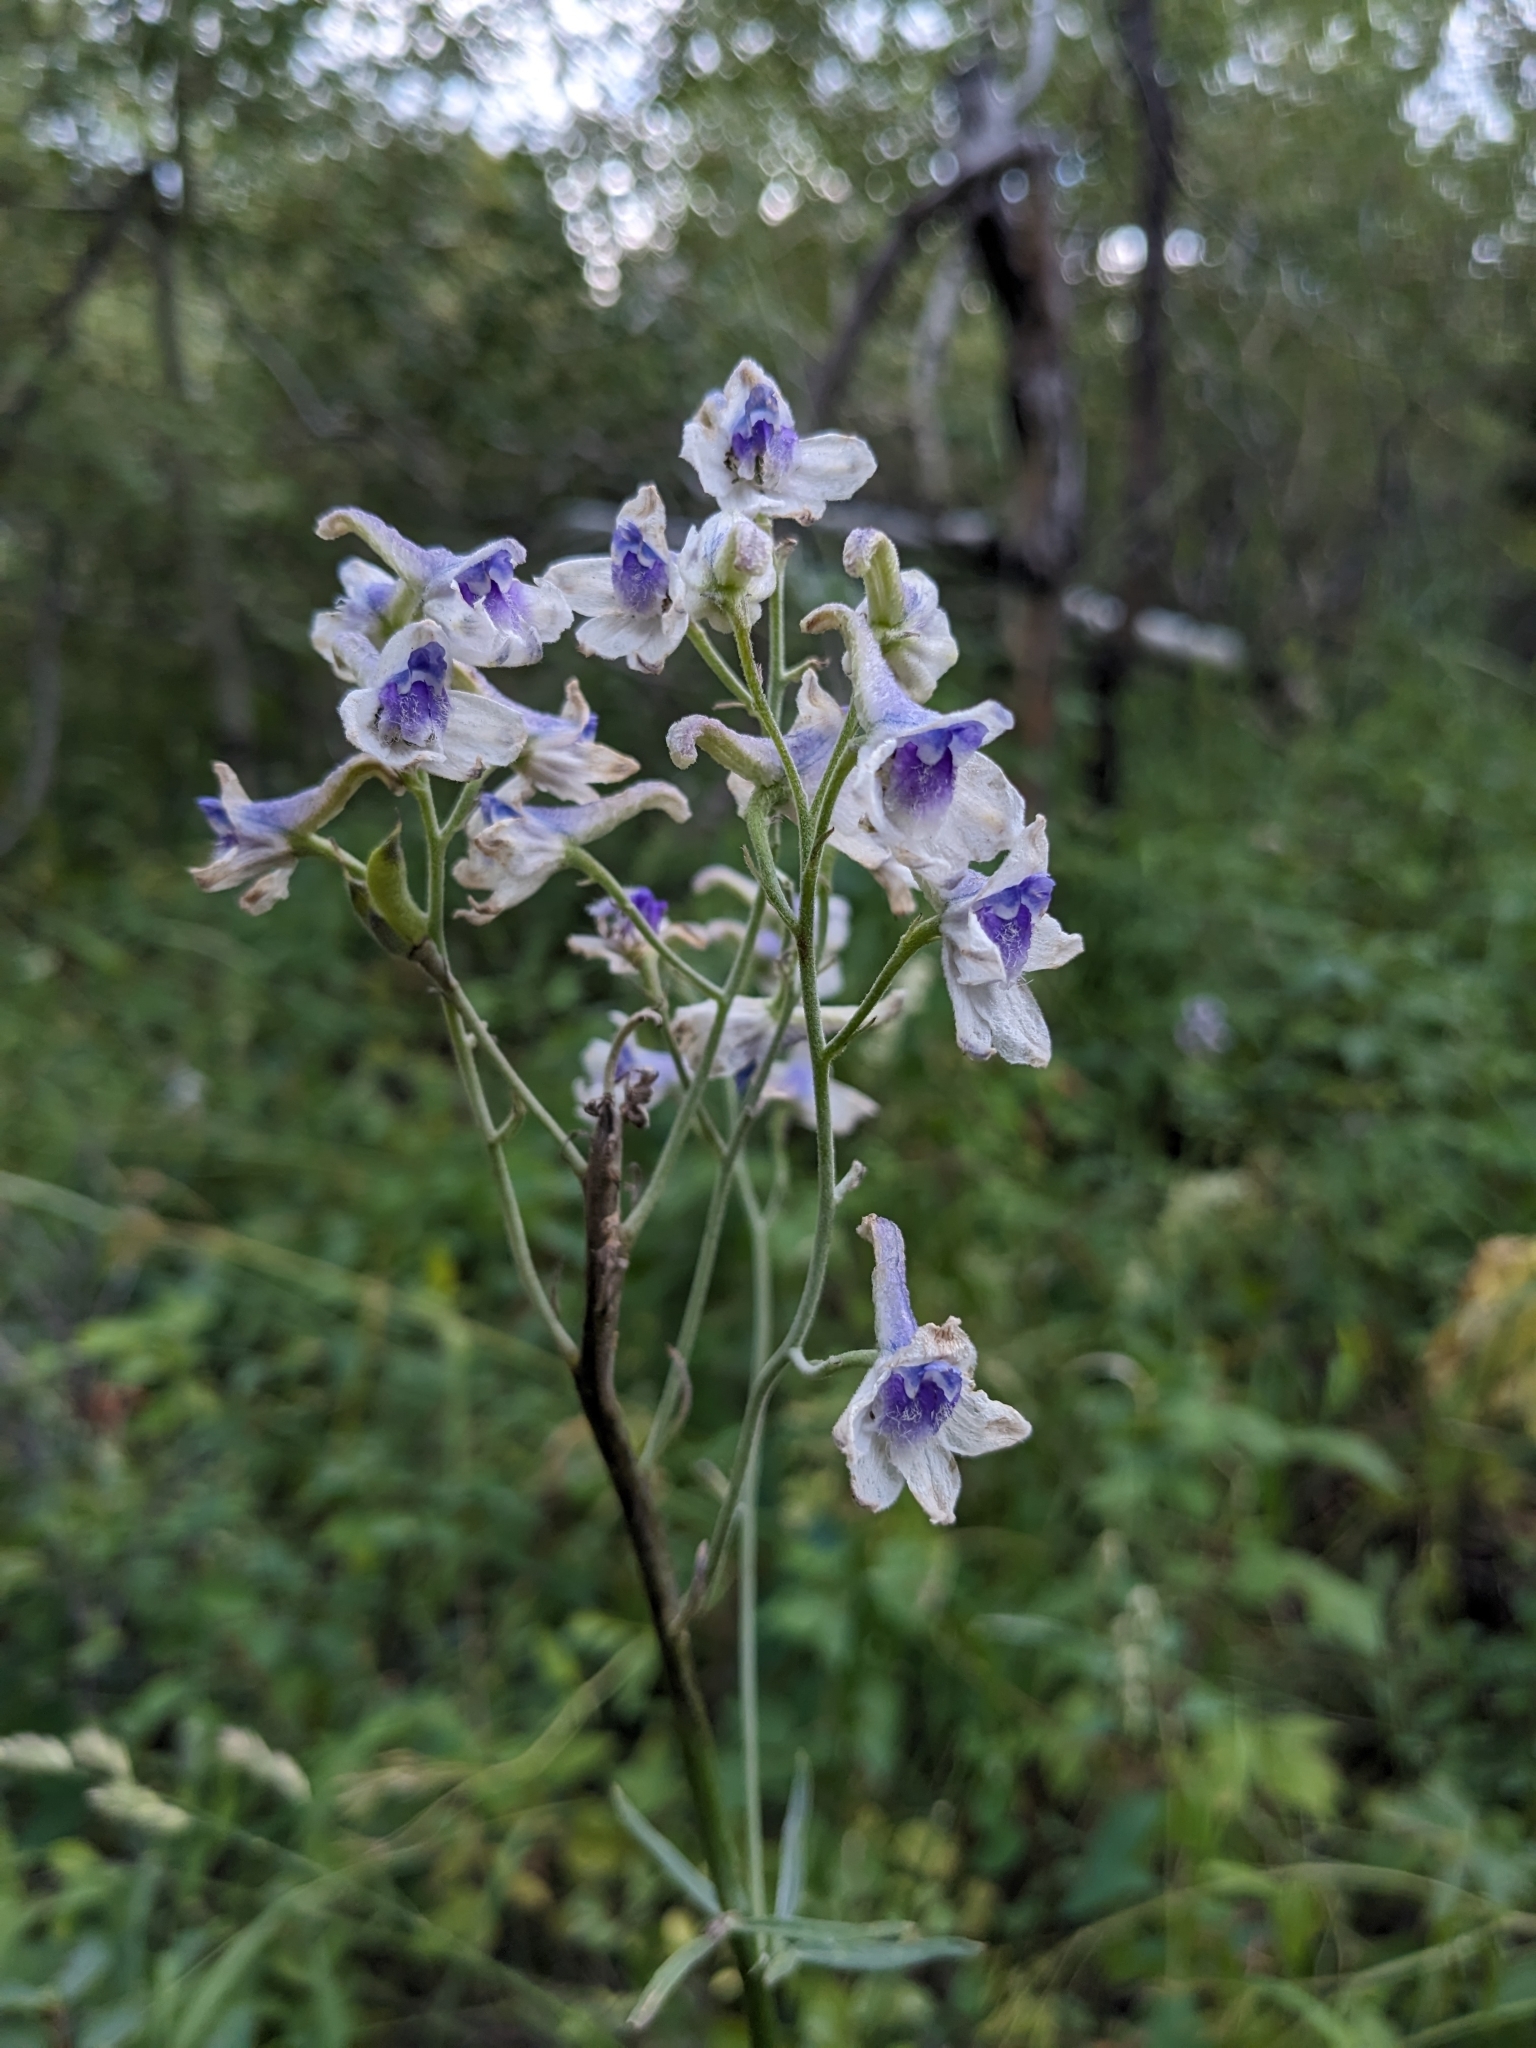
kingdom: Plantae
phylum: Tracheophyta
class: Magnoliopsida
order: Ranunculales
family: Ranunculaceae
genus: Delphinium
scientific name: Delphinium occidentale
